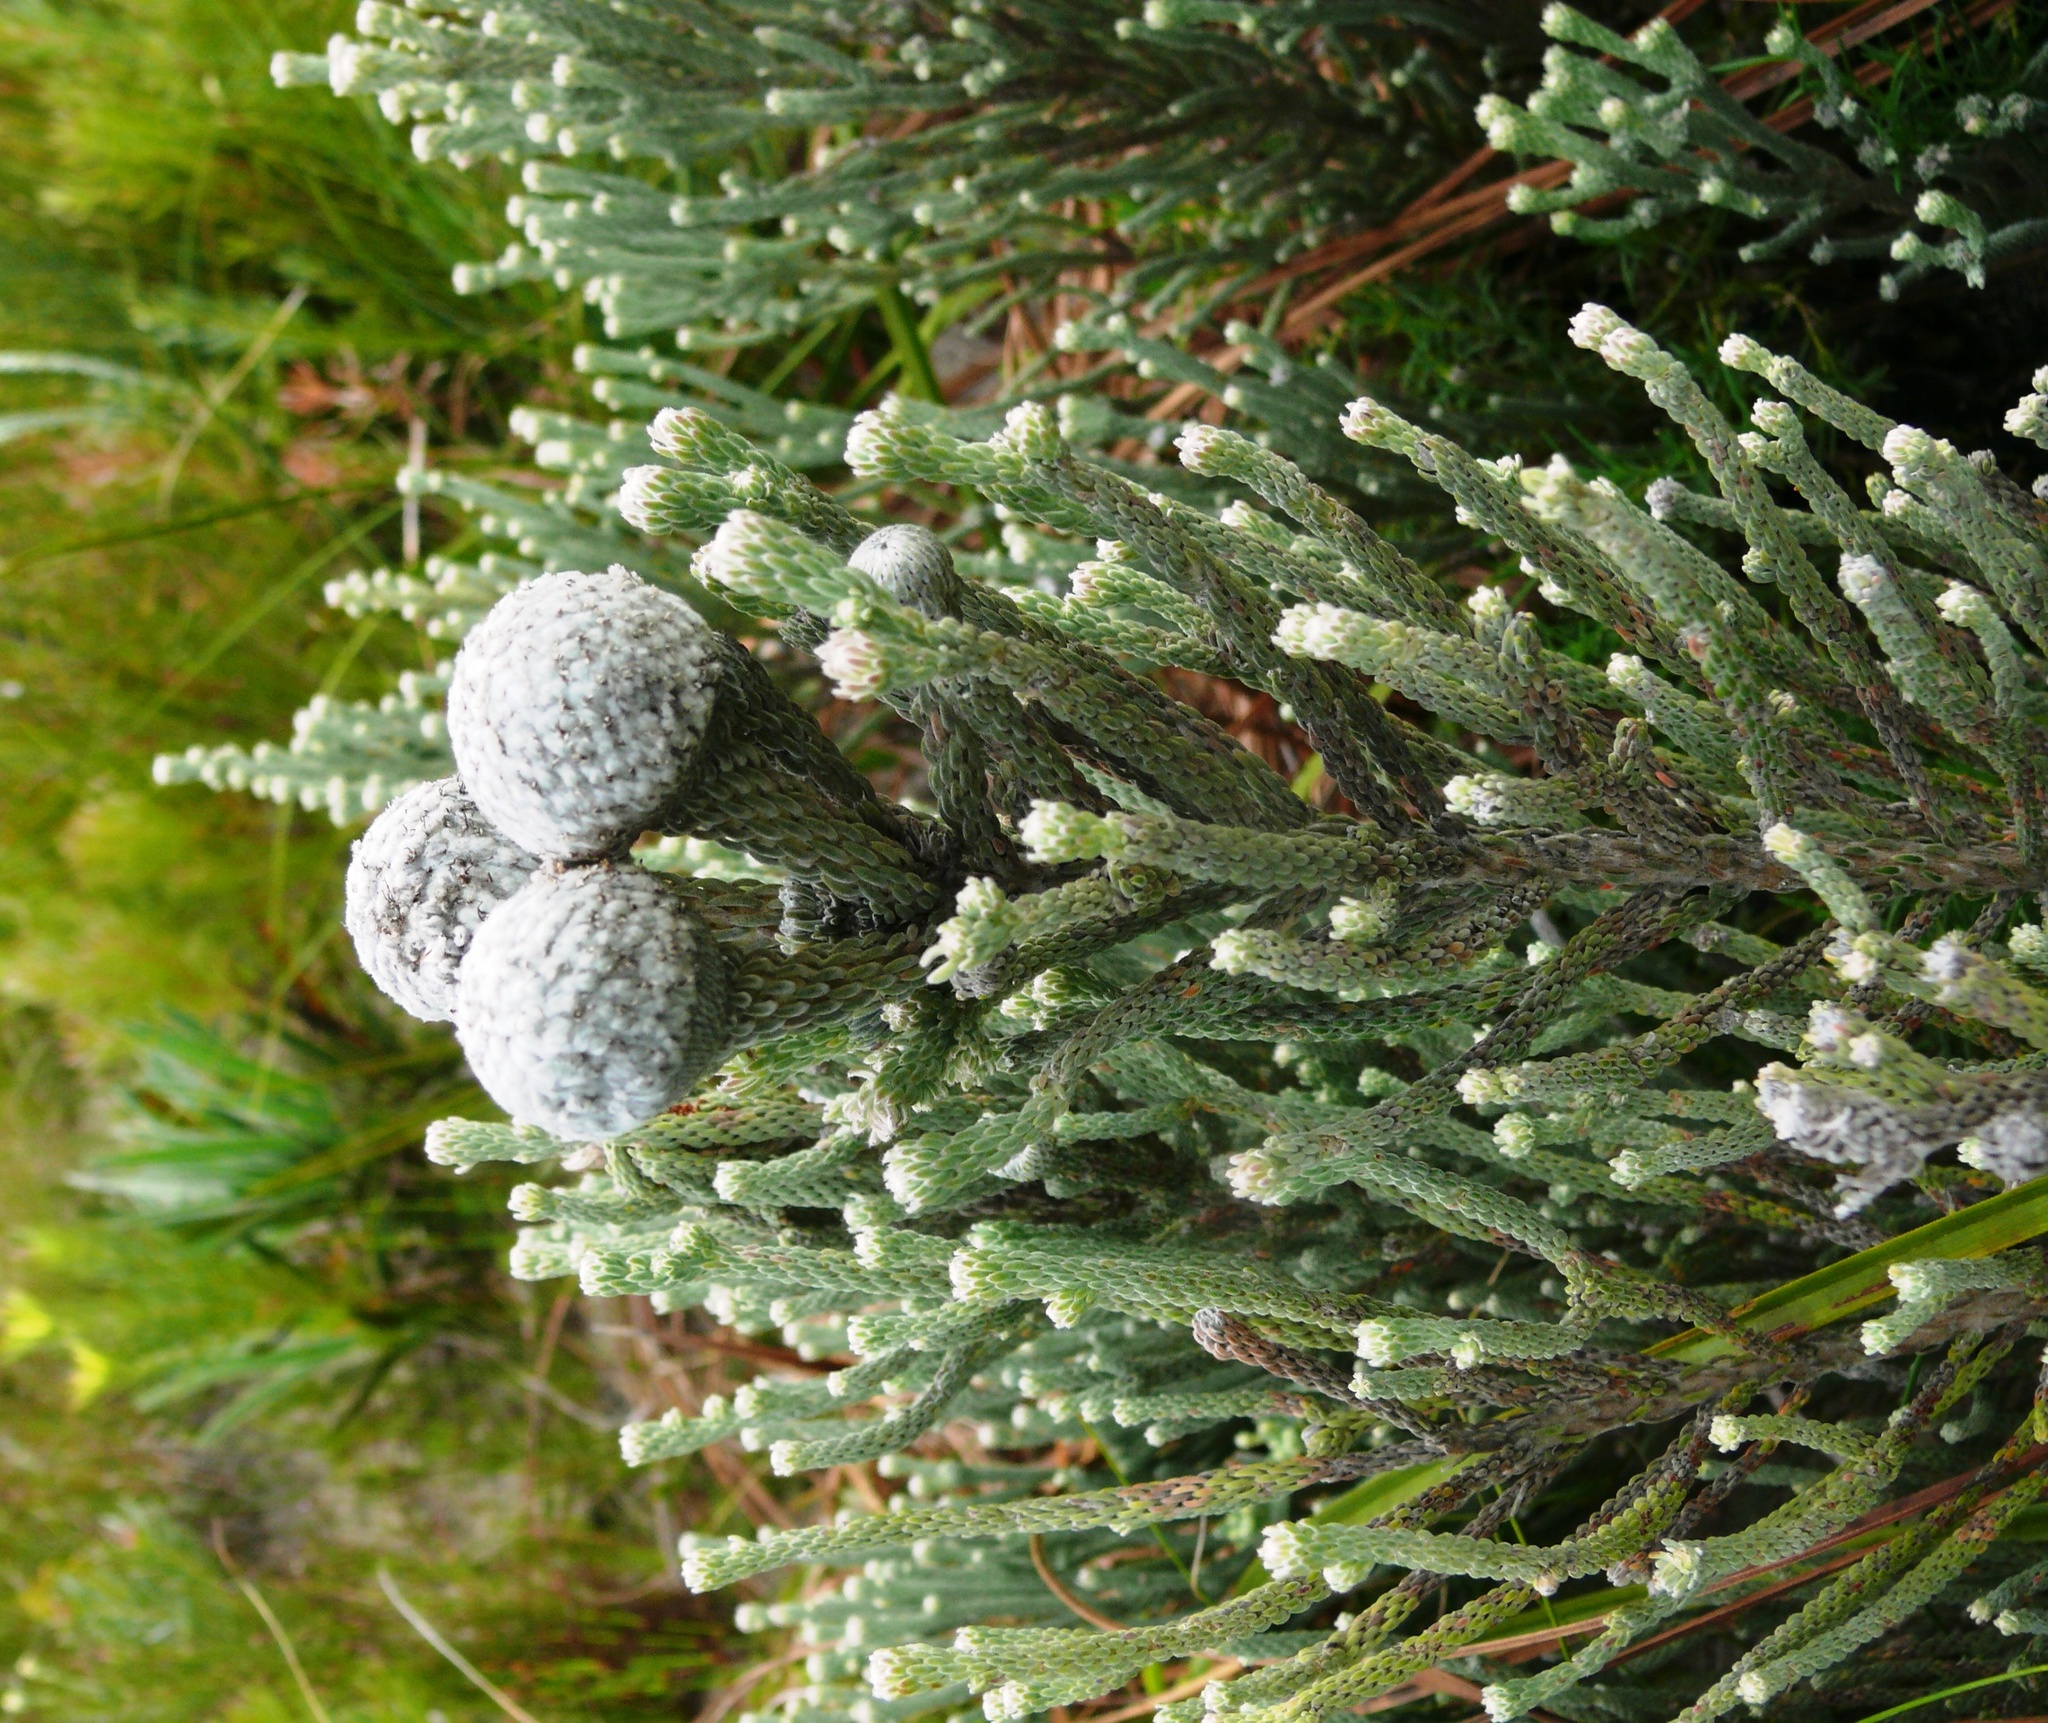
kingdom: Plantae
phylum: Tracheophyta
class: Magnoliopsida
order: Bruniales
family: Bruniaceae
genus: Brunia
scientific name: Brunia laevis
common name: Silver brunia
